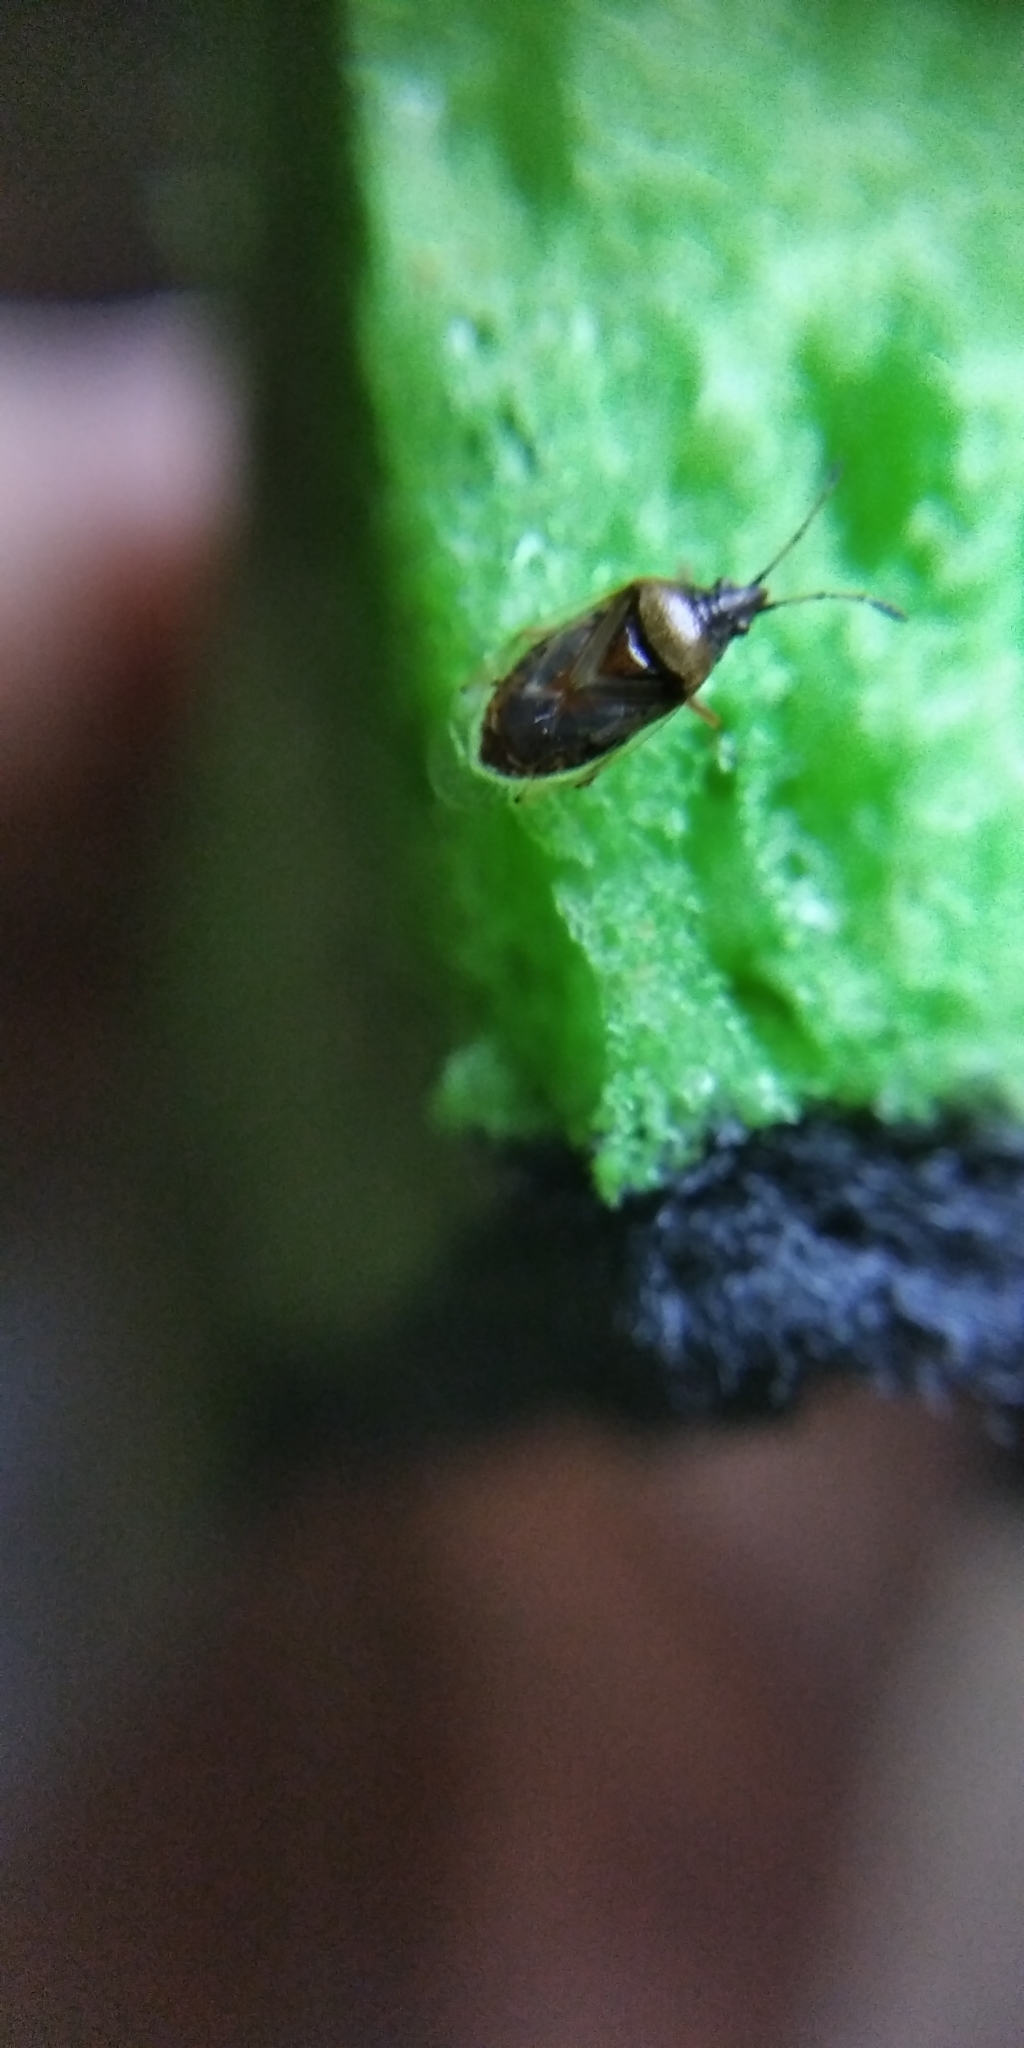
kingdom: Animalia
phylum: Arthropoda
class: Insecta
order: Hemiptera
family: Lygaeidae
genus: Kleidocerys
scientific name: Kleidocerys resedae
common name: Birch catkin bug
